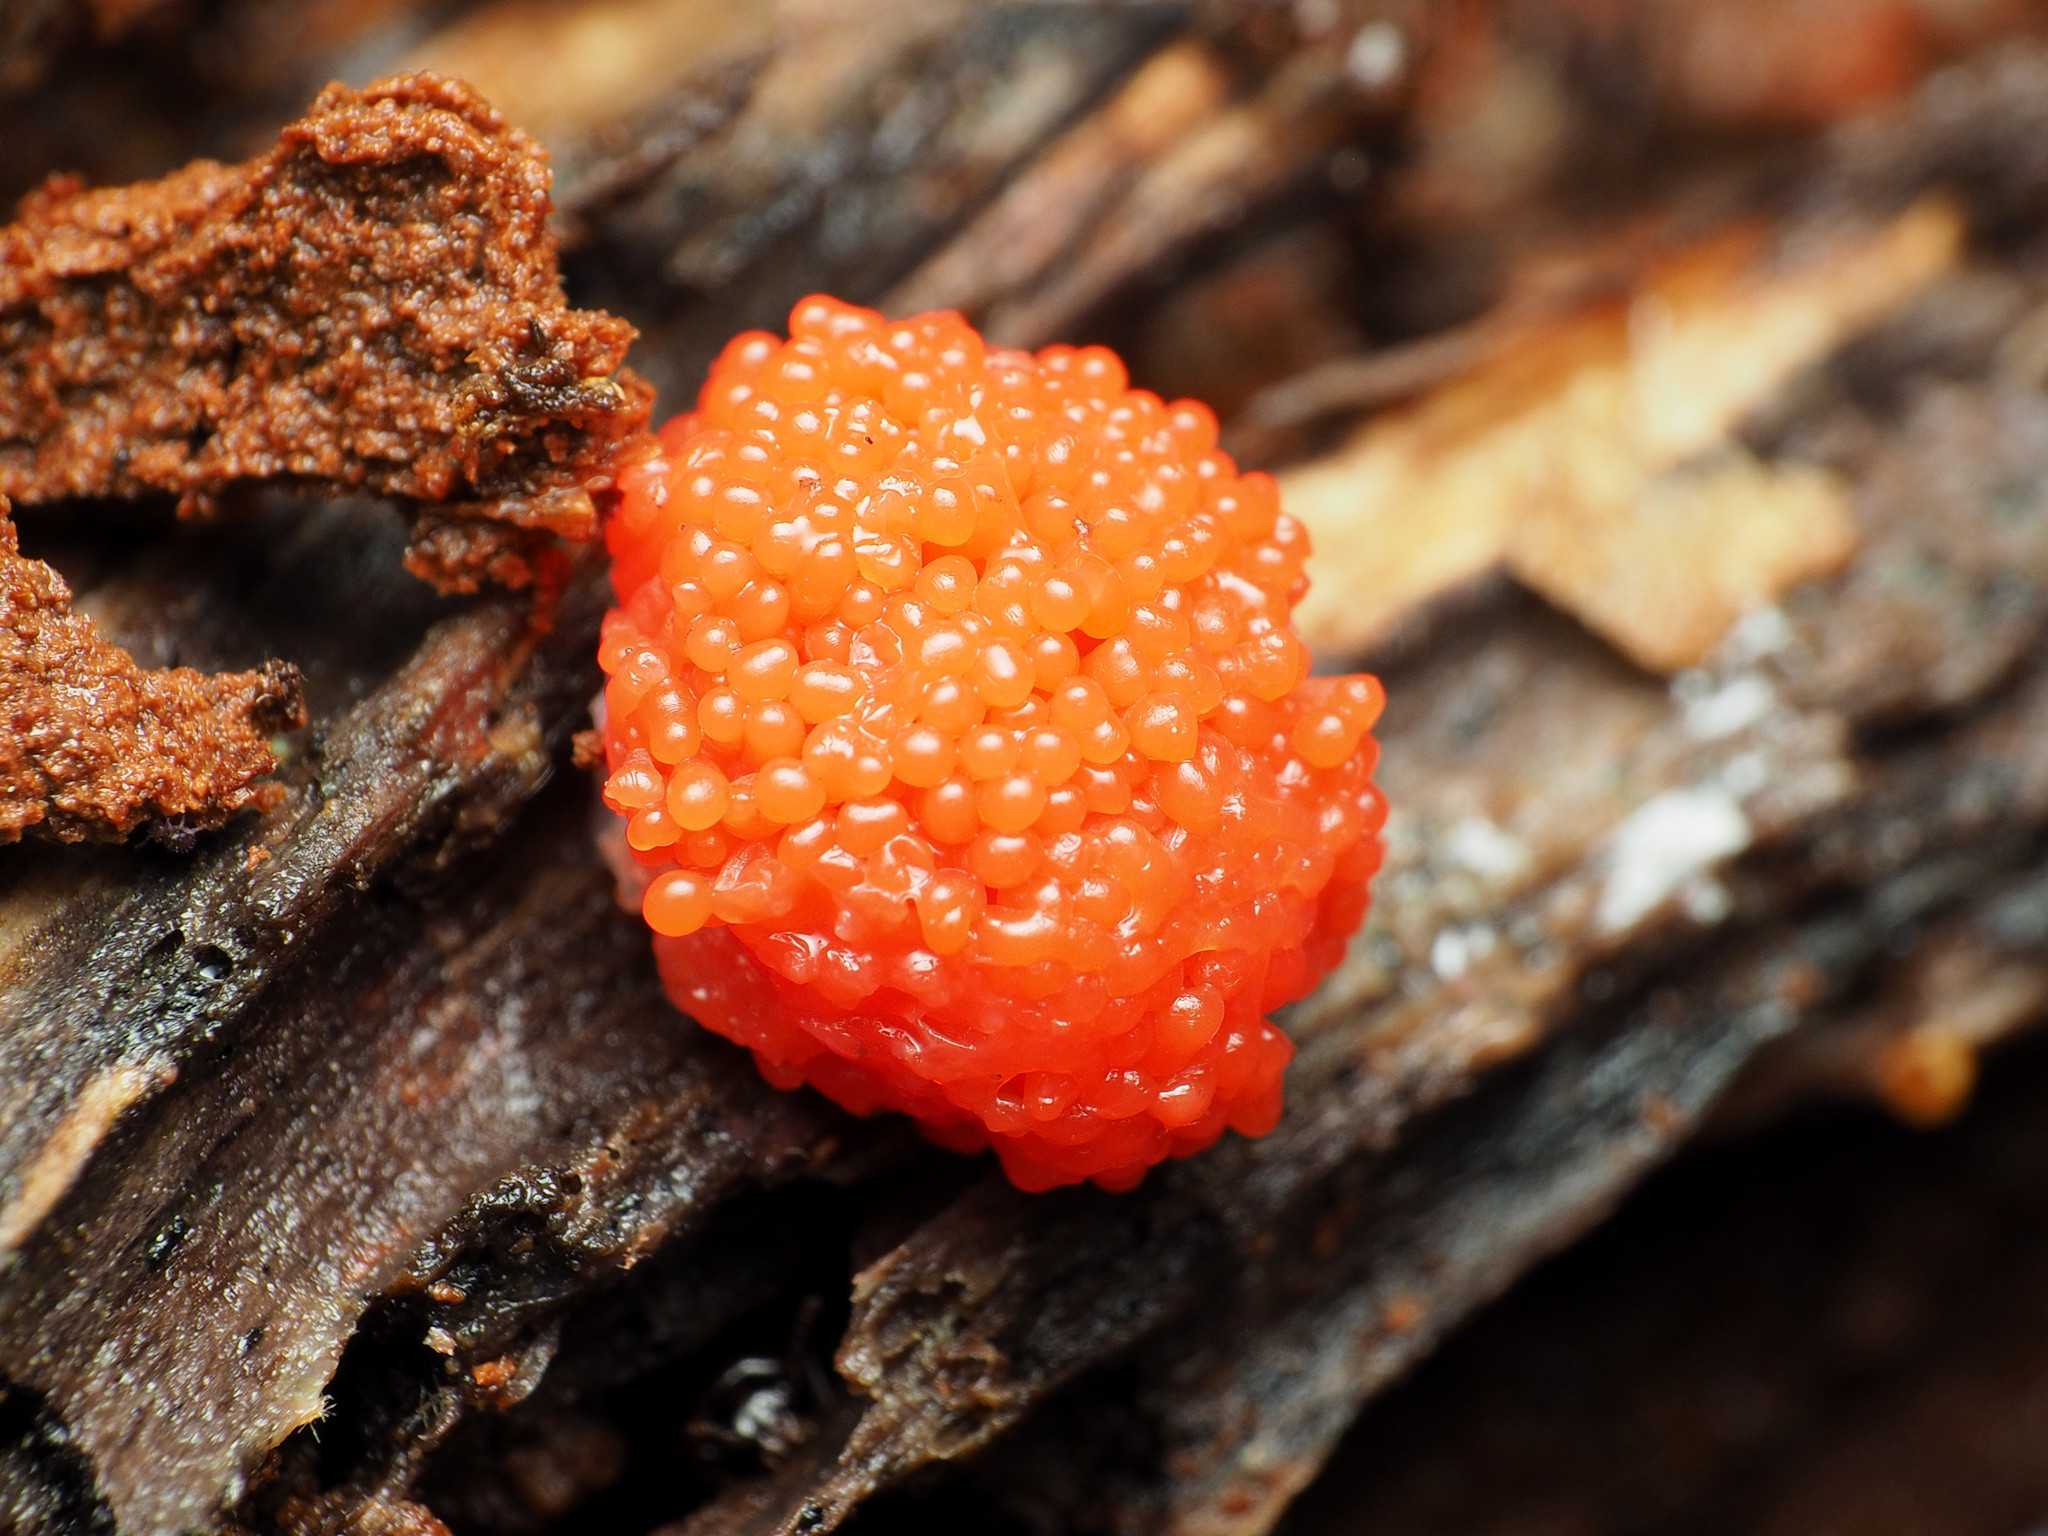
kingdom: Protozoa
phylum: Mycetozoa
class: Myxomycetes
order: Cribrariales
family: Tubiferaceae
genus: Tubifera
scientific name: Tubifera ferruginosa
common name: Red raspberry slime mold
